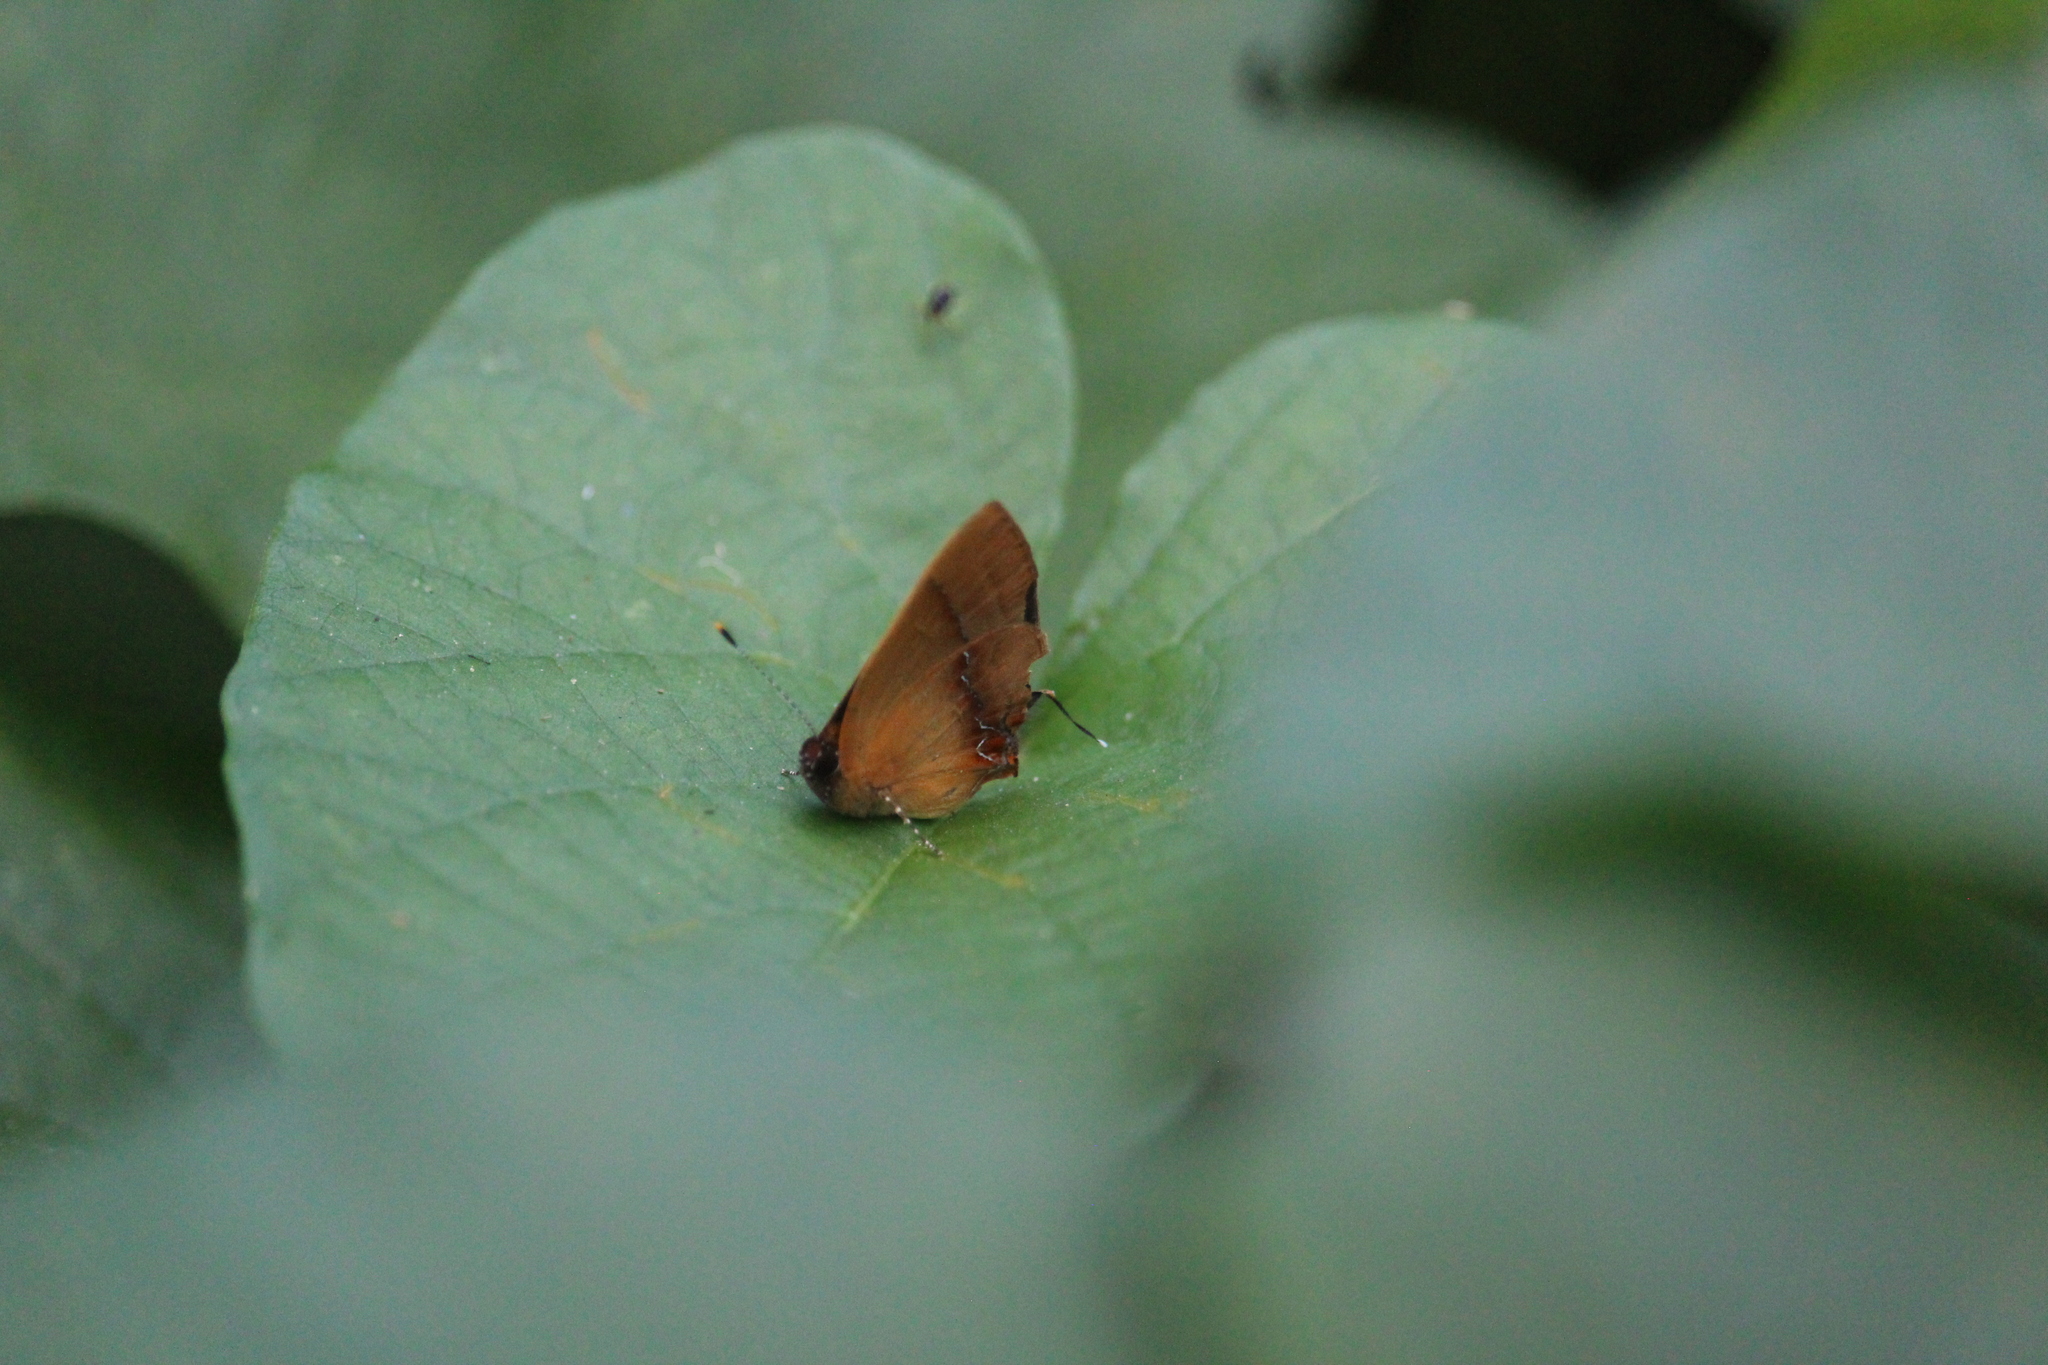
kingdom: Animalia
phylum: Arthropoda
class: Insecta
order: Lepidoptera
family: Lycaenidae
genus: Thecla
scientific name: Thecla demonassa
